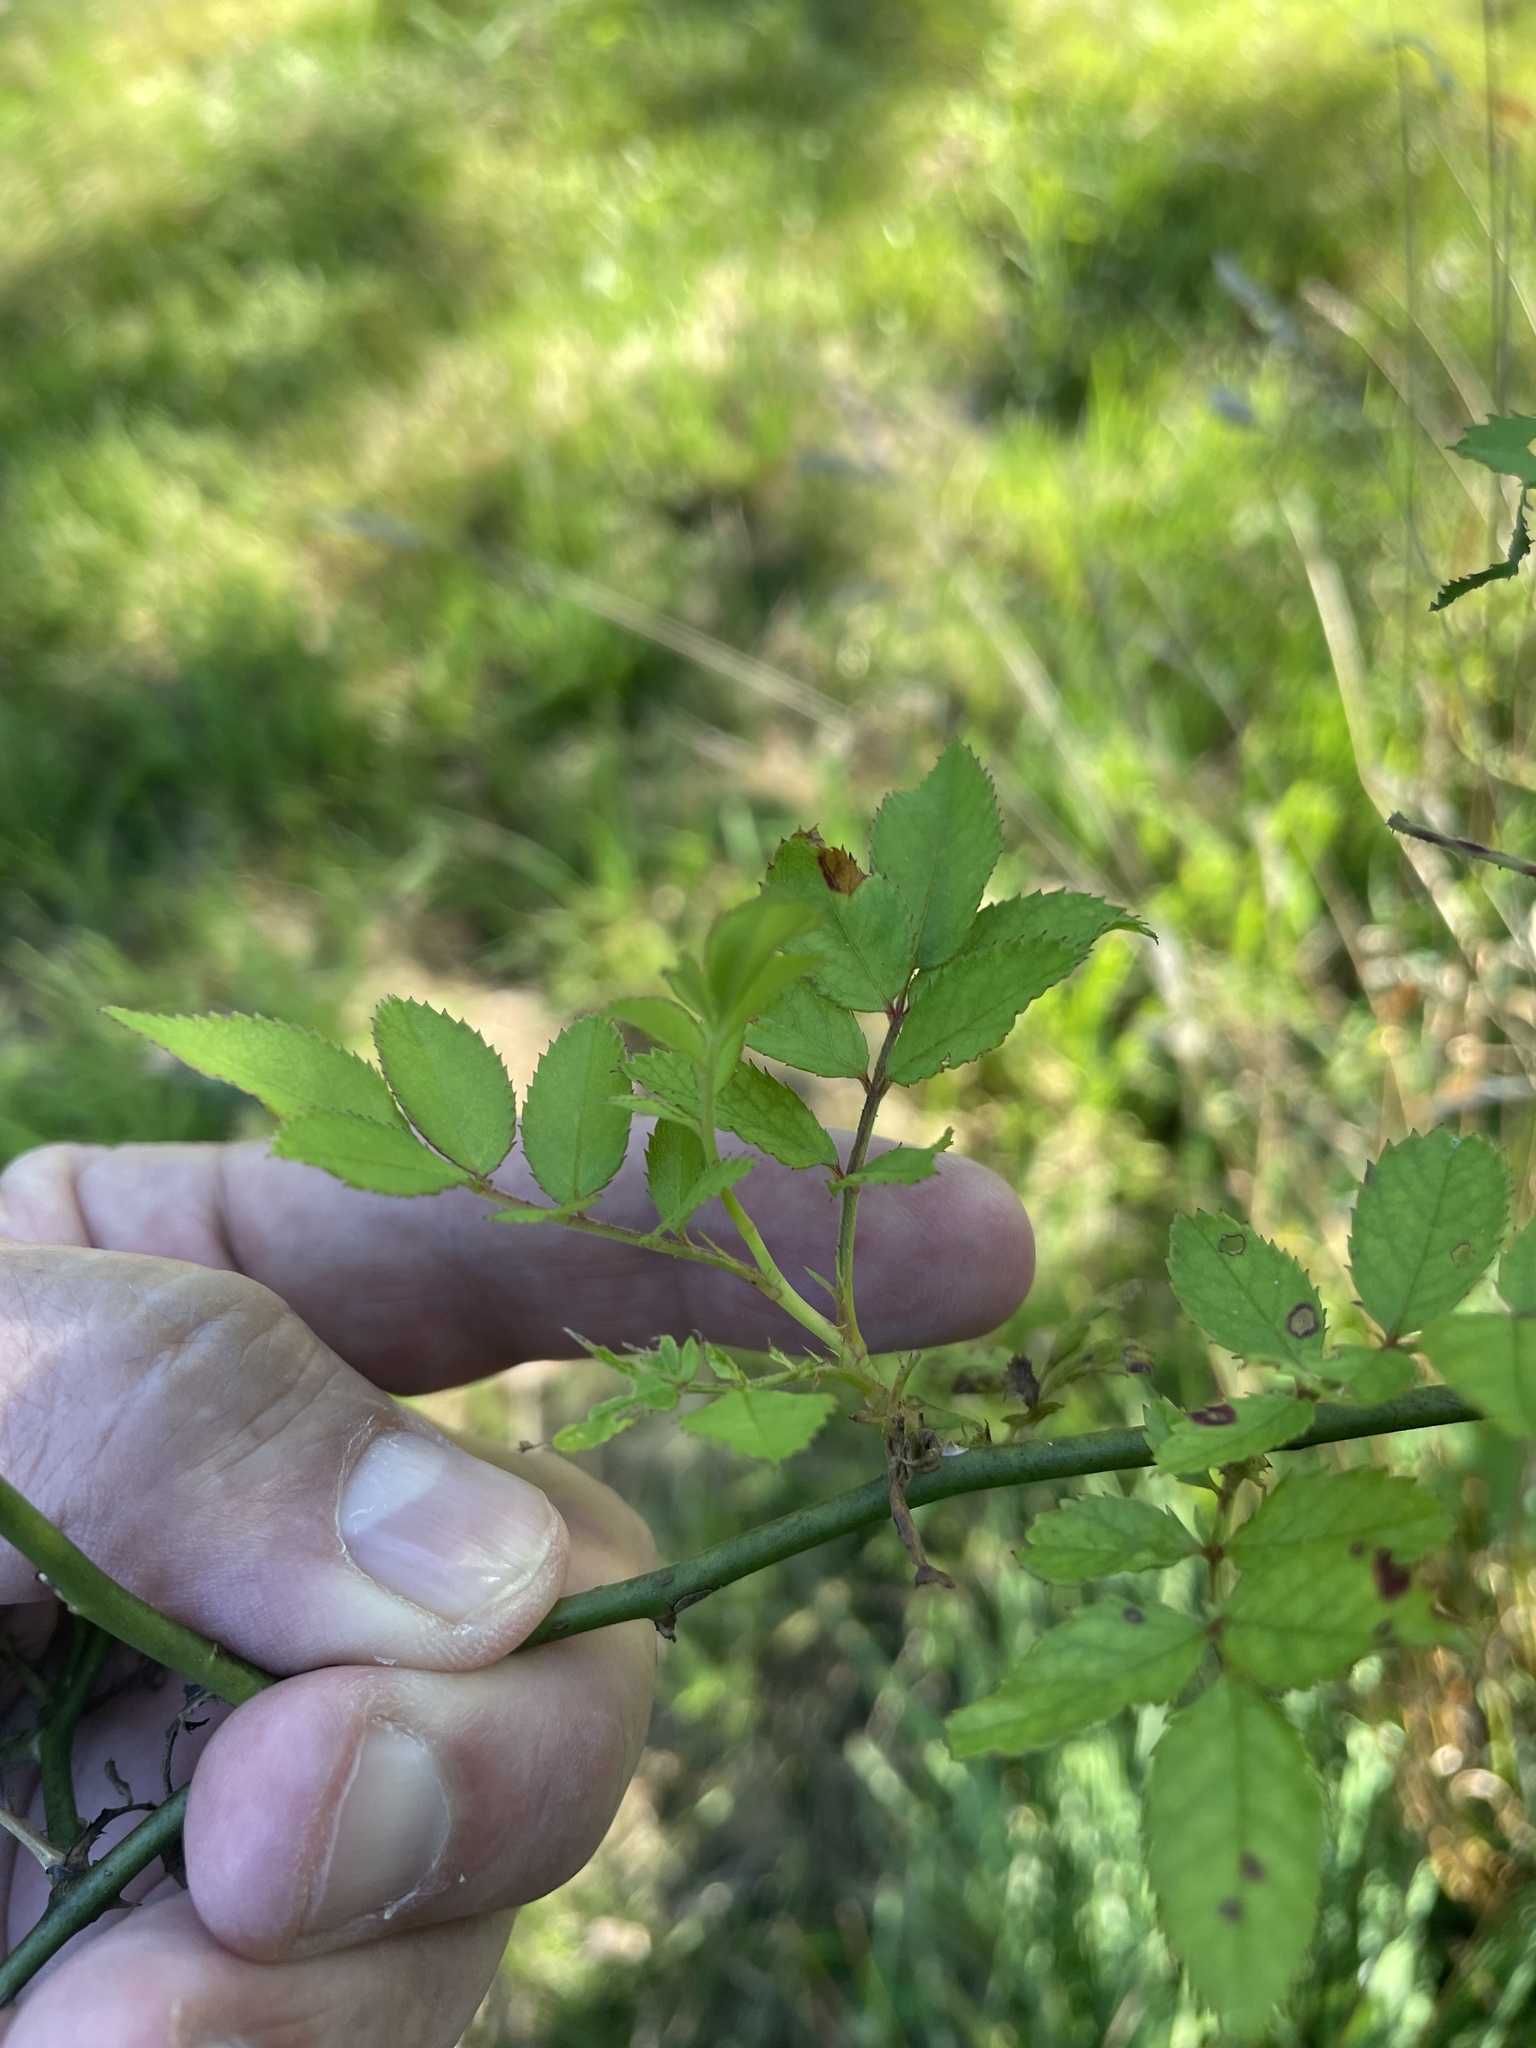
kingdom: Plantae
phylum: Tracheophyta
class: Magnoliopsida
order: Rosales
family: Rosaceae
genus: Rosa
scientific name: Rosa multiflora
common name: Multiflora rose
